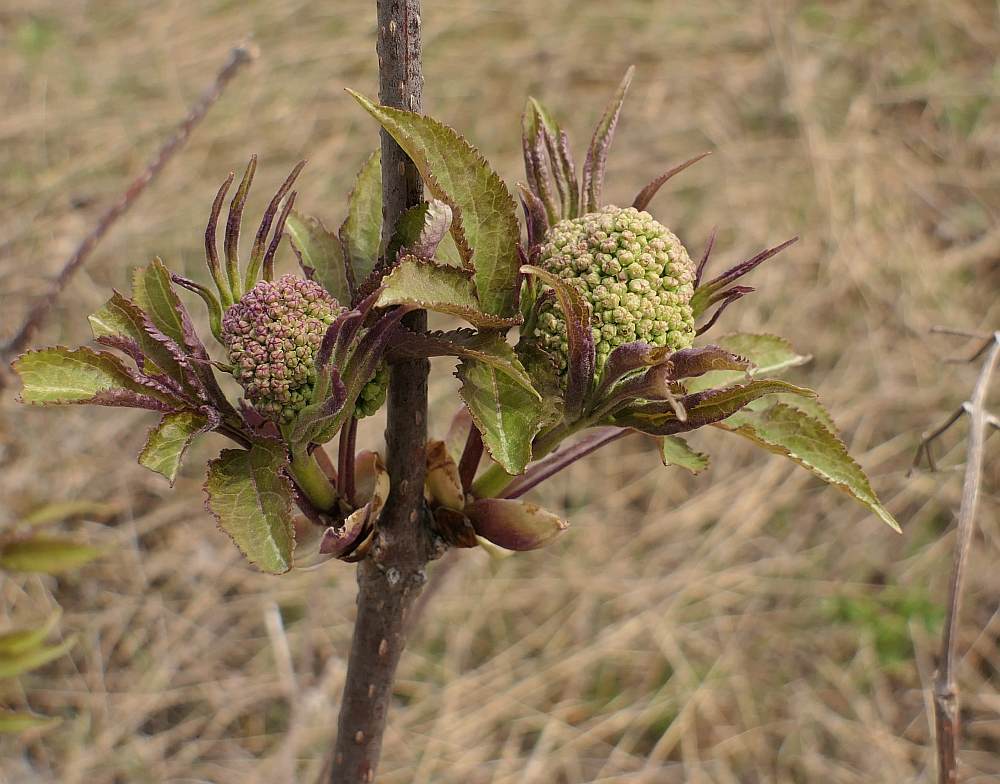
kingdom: Plantae
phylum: Tracheophyta
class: Magnoliopsida
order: Dipsacales
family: Viburnaceae
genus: Sambucus
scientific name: Sambucus racemosa
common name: Red-berried elder
